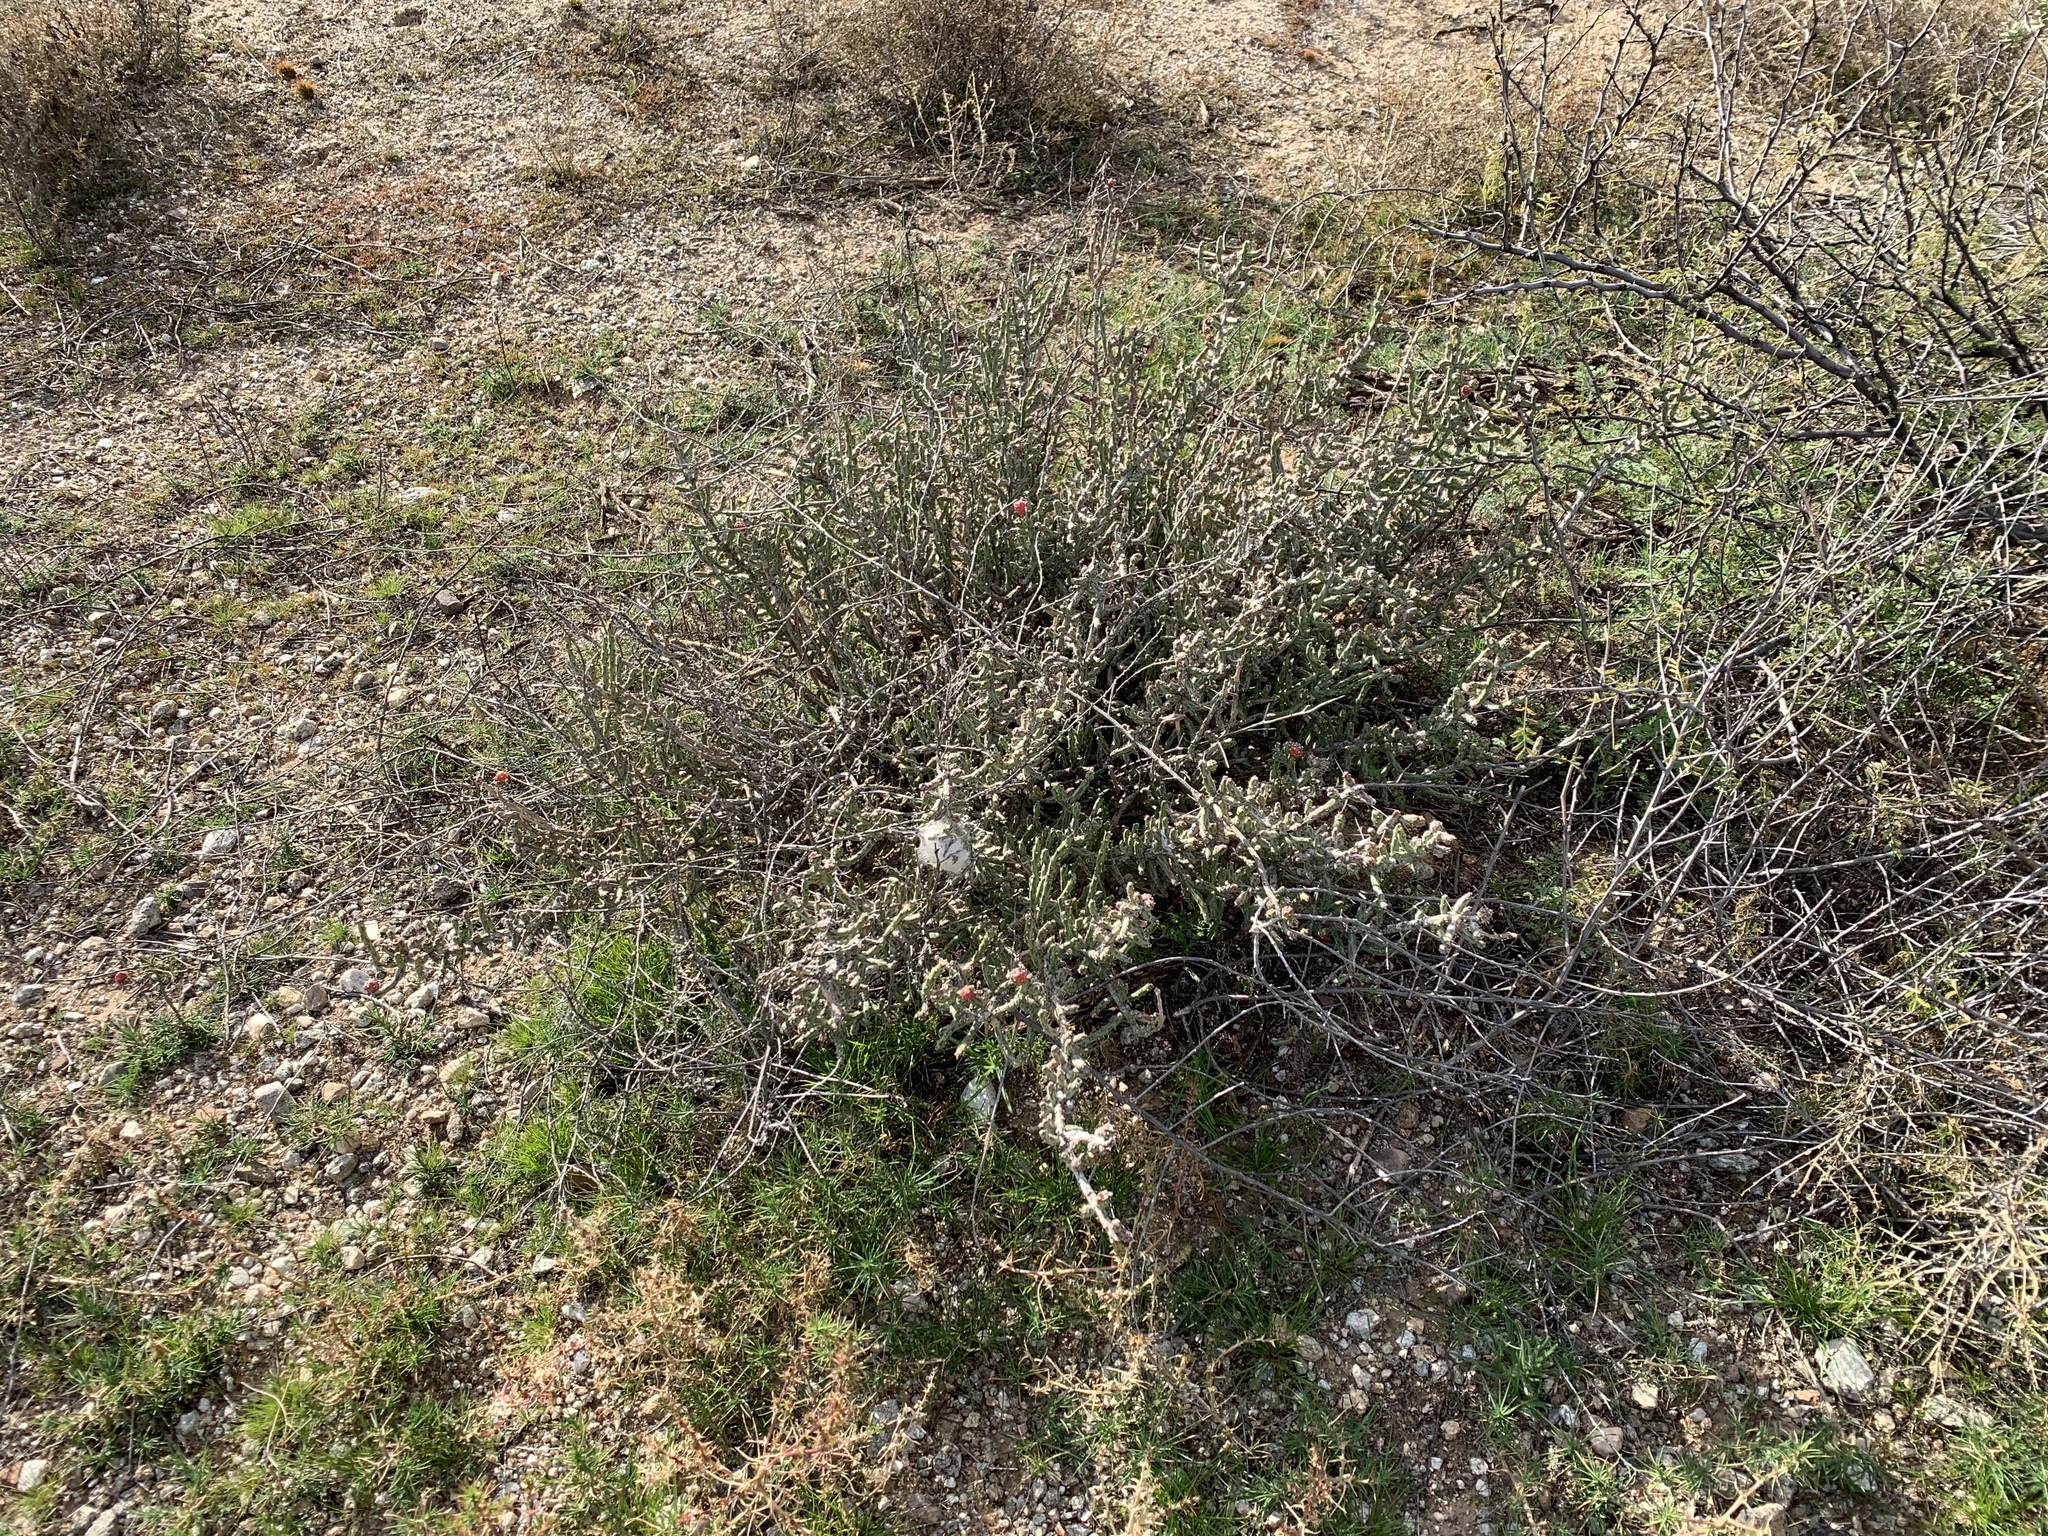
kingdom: Plantae
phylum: Tracheophyta
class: Magnoliopsida
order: Caryophyllales
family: Cactaceae
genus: Cylindropuntia
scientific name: Cylindropuntia leptocaulis
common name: Christmas cactus
